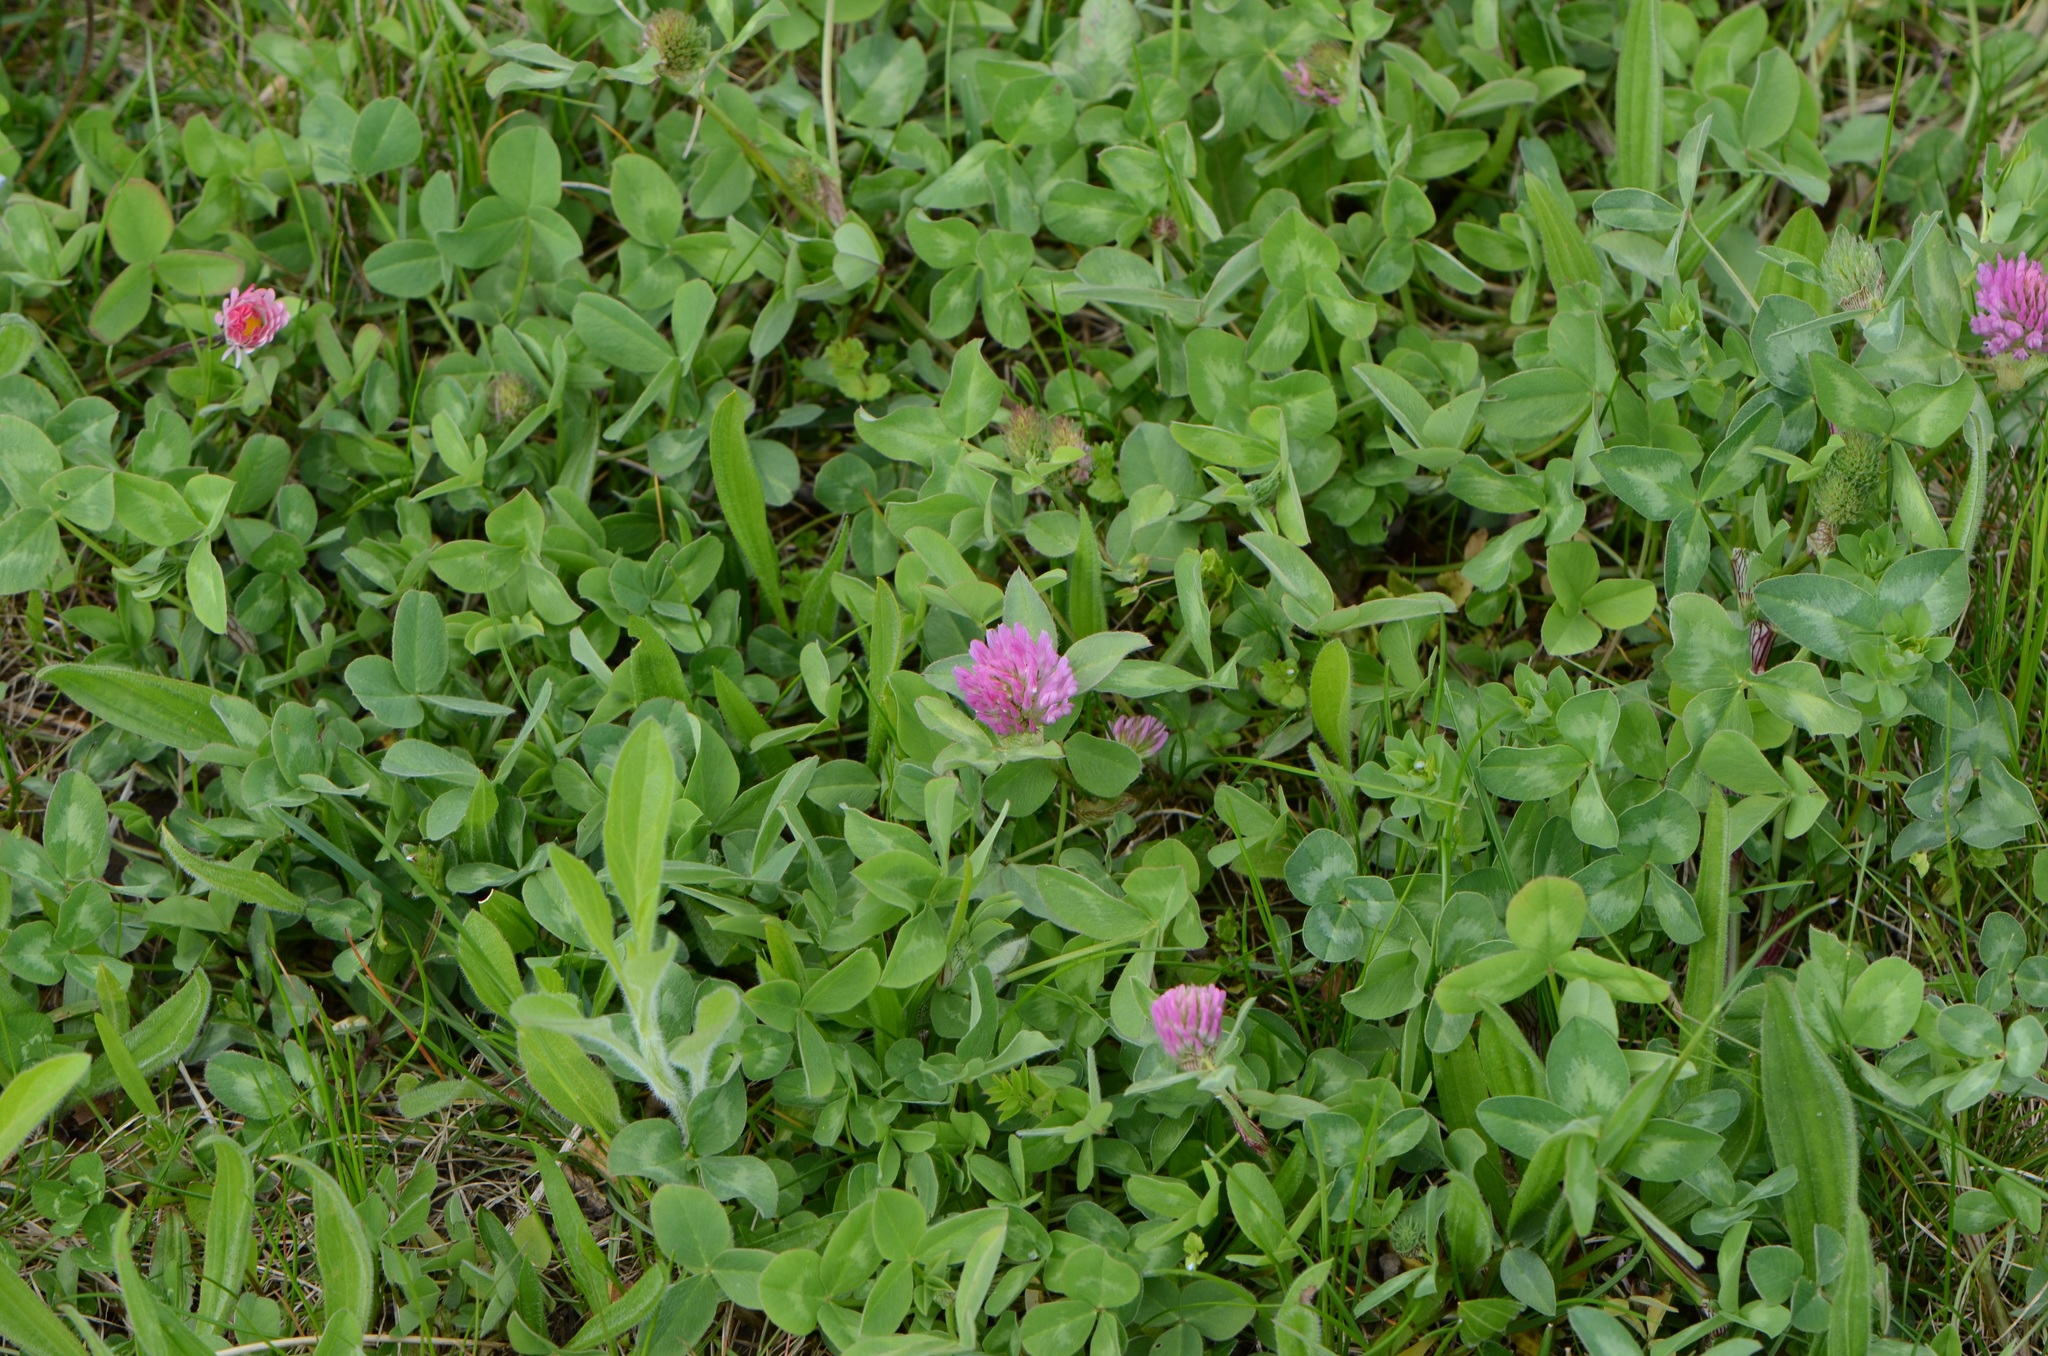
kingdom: Plantae
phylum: Tracheophyta
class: Magnoliopsida
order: Fabales
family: Fabaceae
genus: Trifolium
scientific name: Trifolium pratense
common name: Red clover
